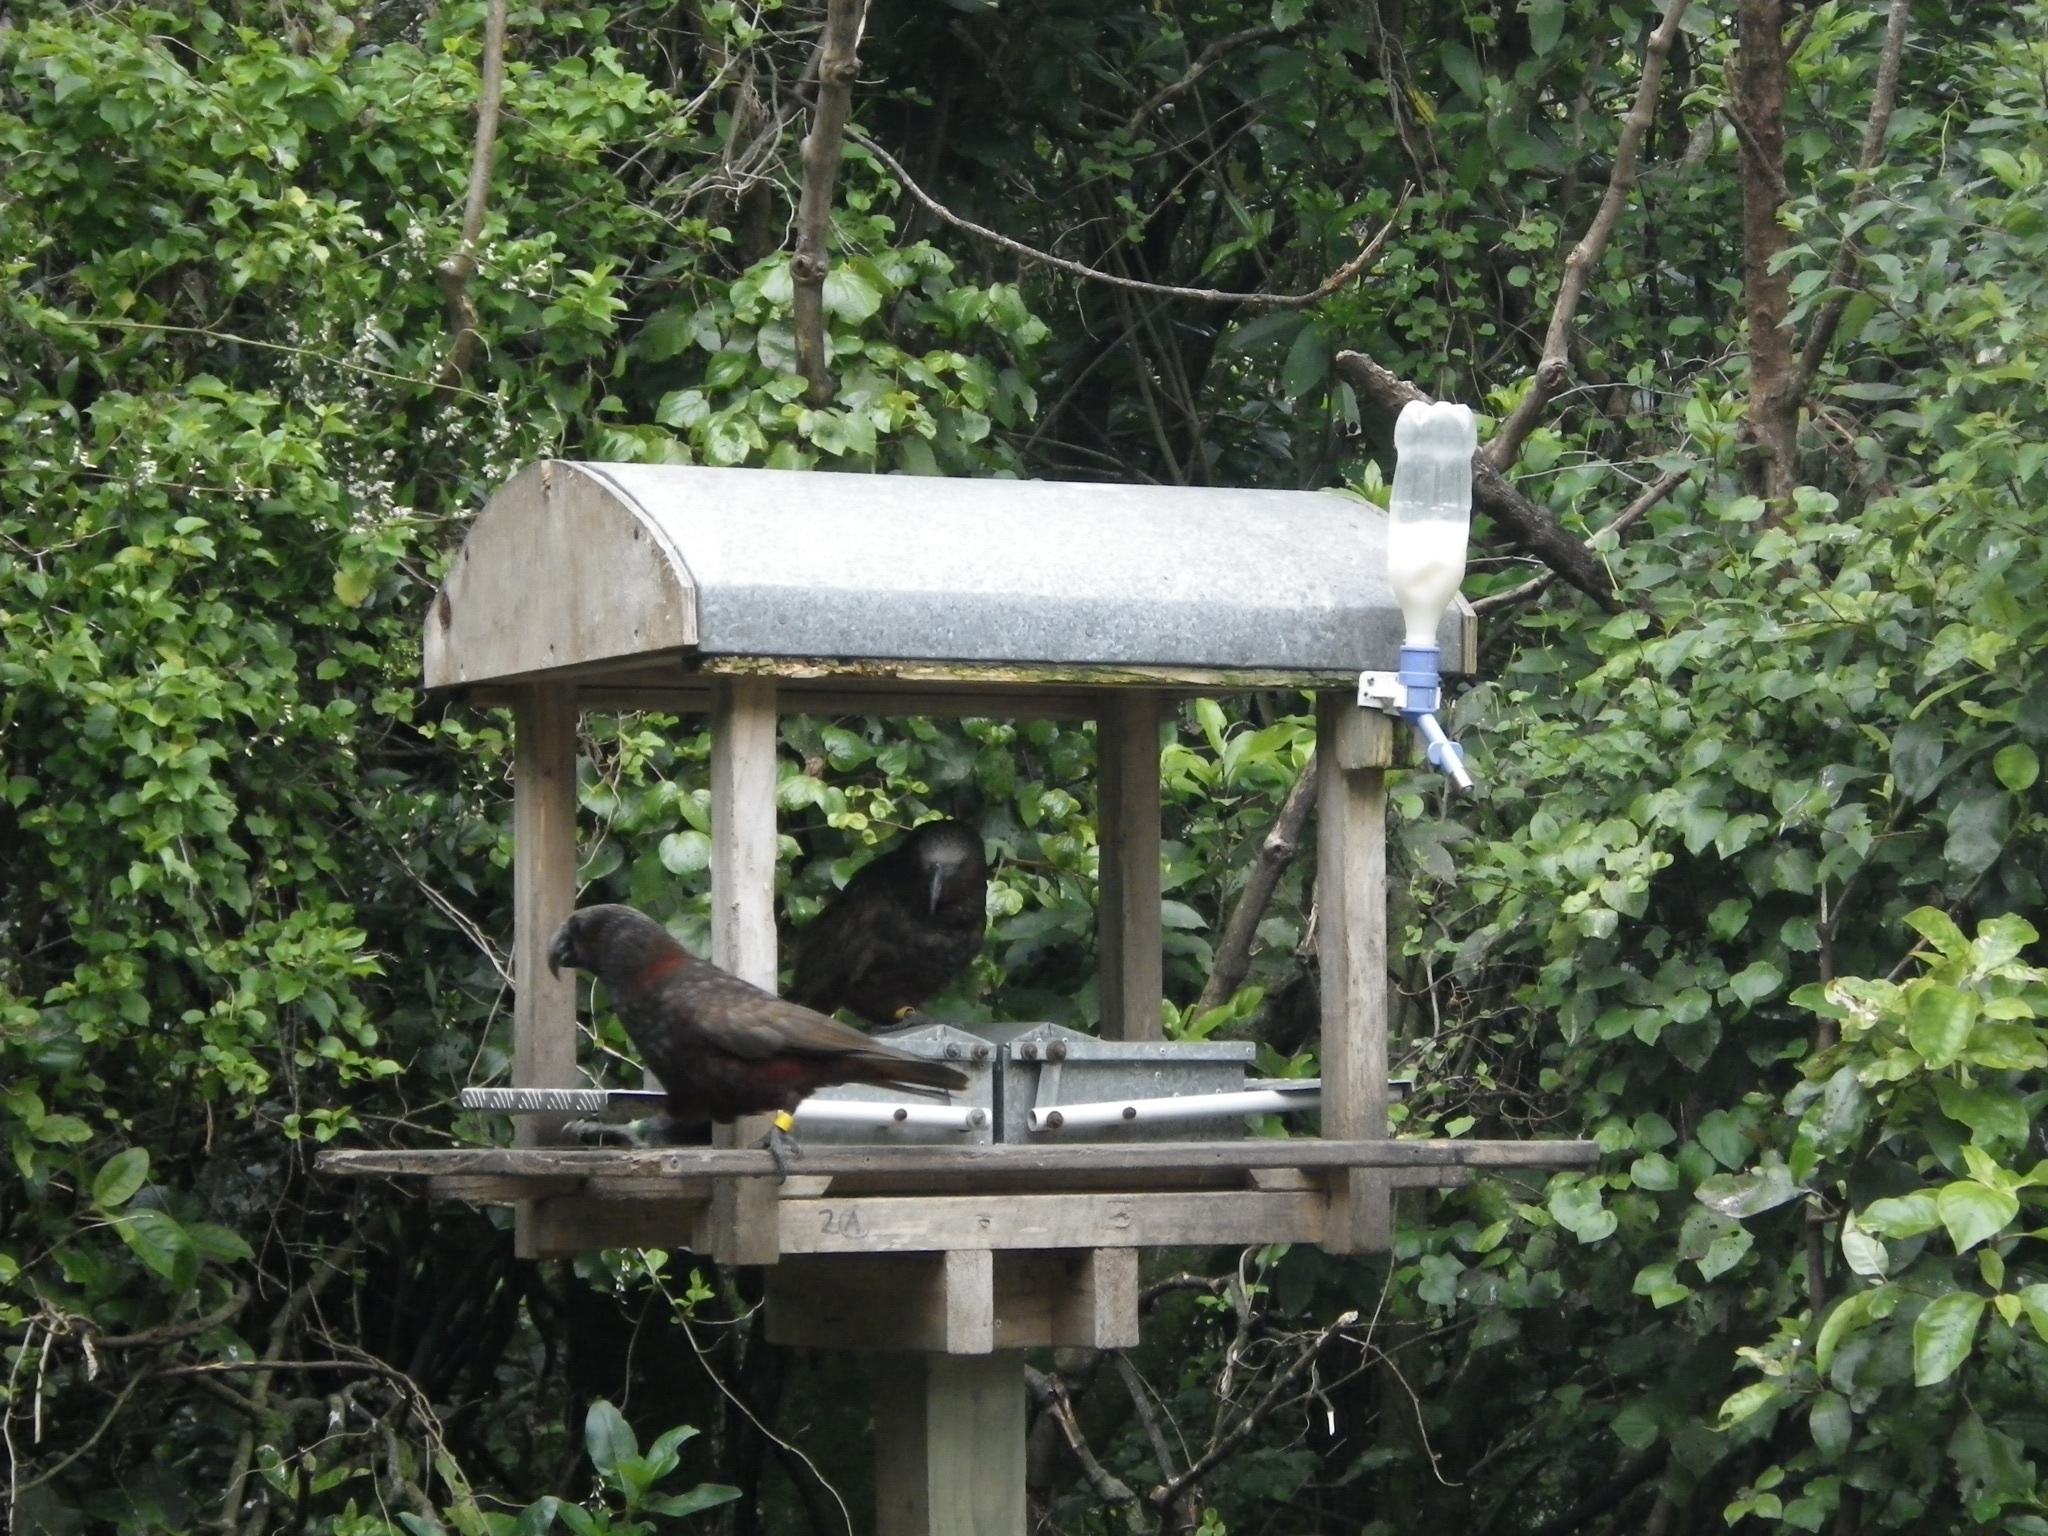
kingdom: Animalia
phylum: Chordata
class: Aves
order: Psittaciformes
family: Psittacidae
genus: Nestor
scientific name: Nestor meridionalis
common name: New zealand kaka
